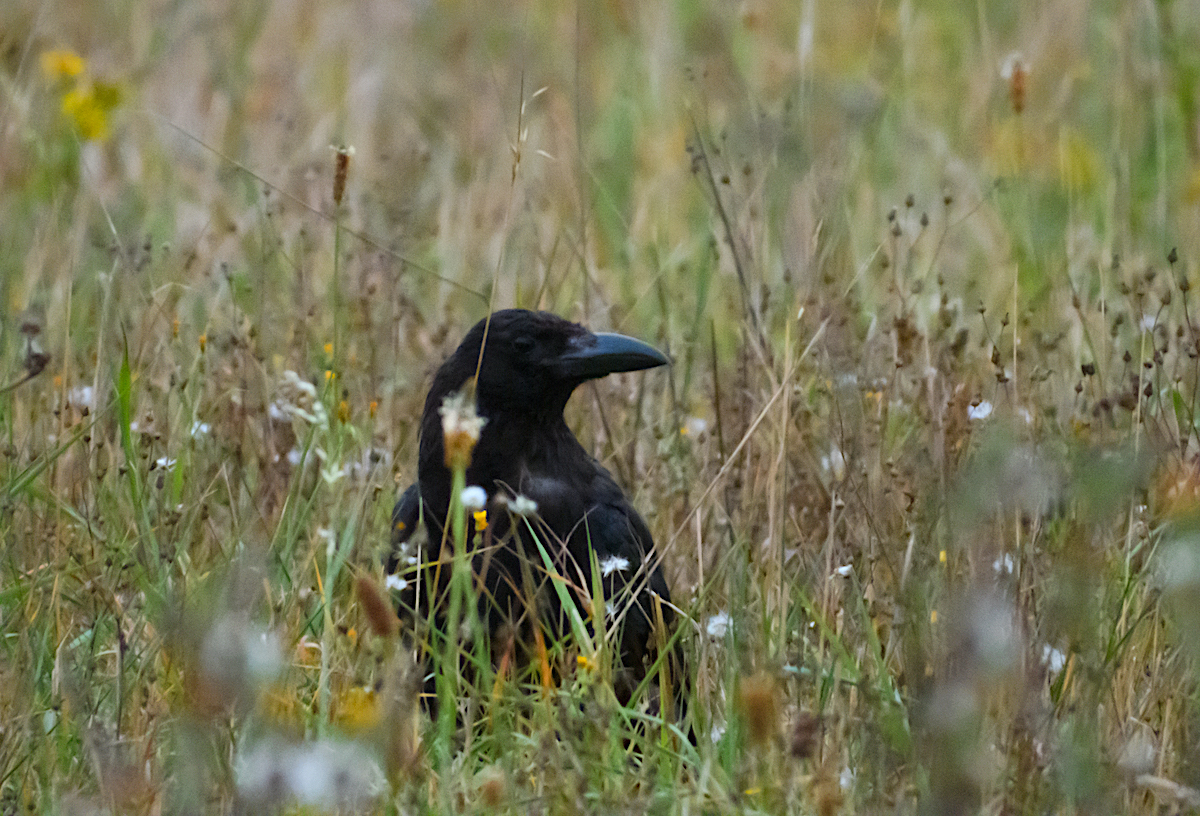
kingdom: Animalia
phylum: Chordata
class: Aves
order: Passeriformes
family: Corvidae
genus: Corvus
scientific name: Corvus corone
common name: Carrion crow
